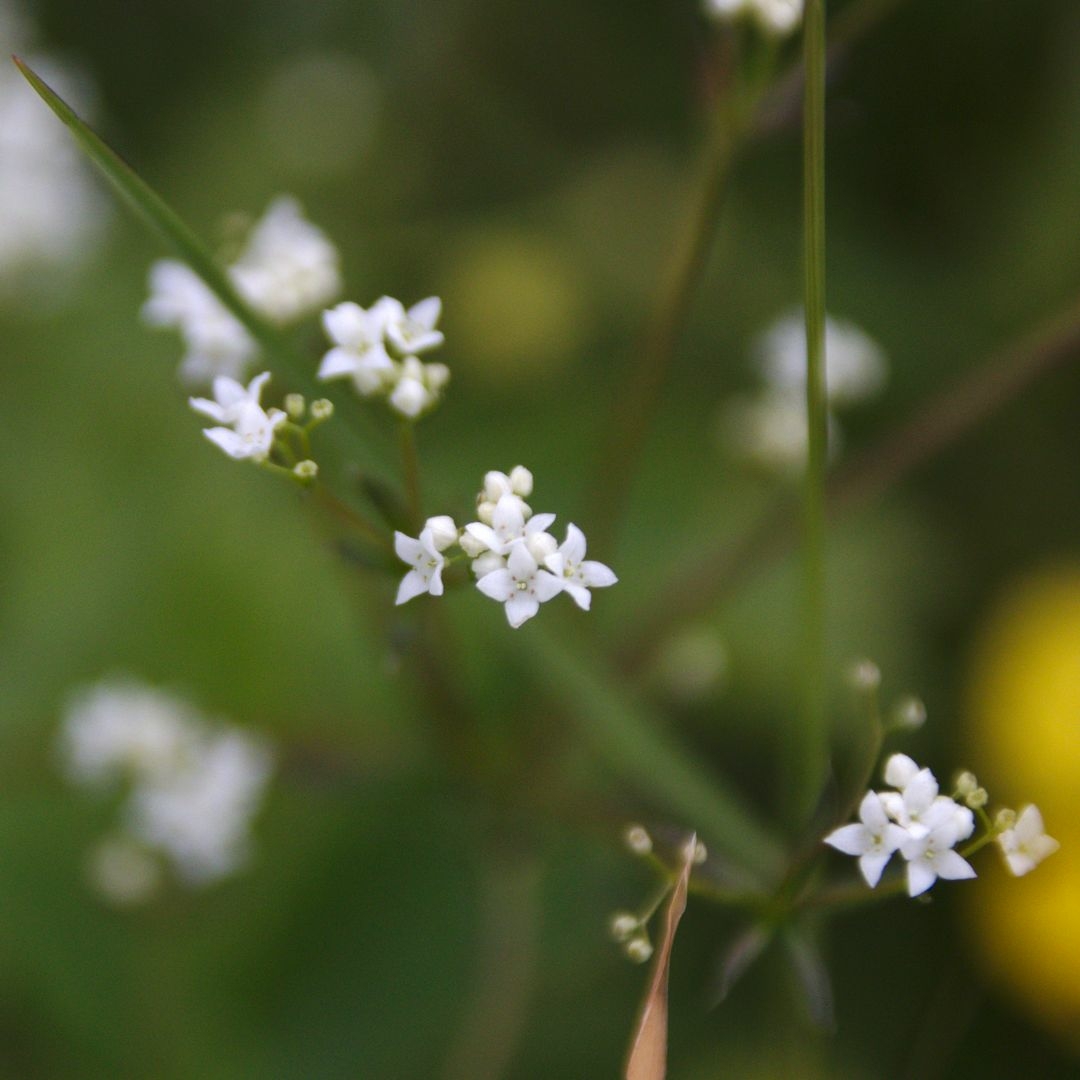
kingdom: Plantae
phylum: Tracheophyta
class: Magnoliopsida
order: Gentianales
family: Rubiaceae
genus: Galium
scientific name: Galium uliginosum
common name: Fen bedstraw
